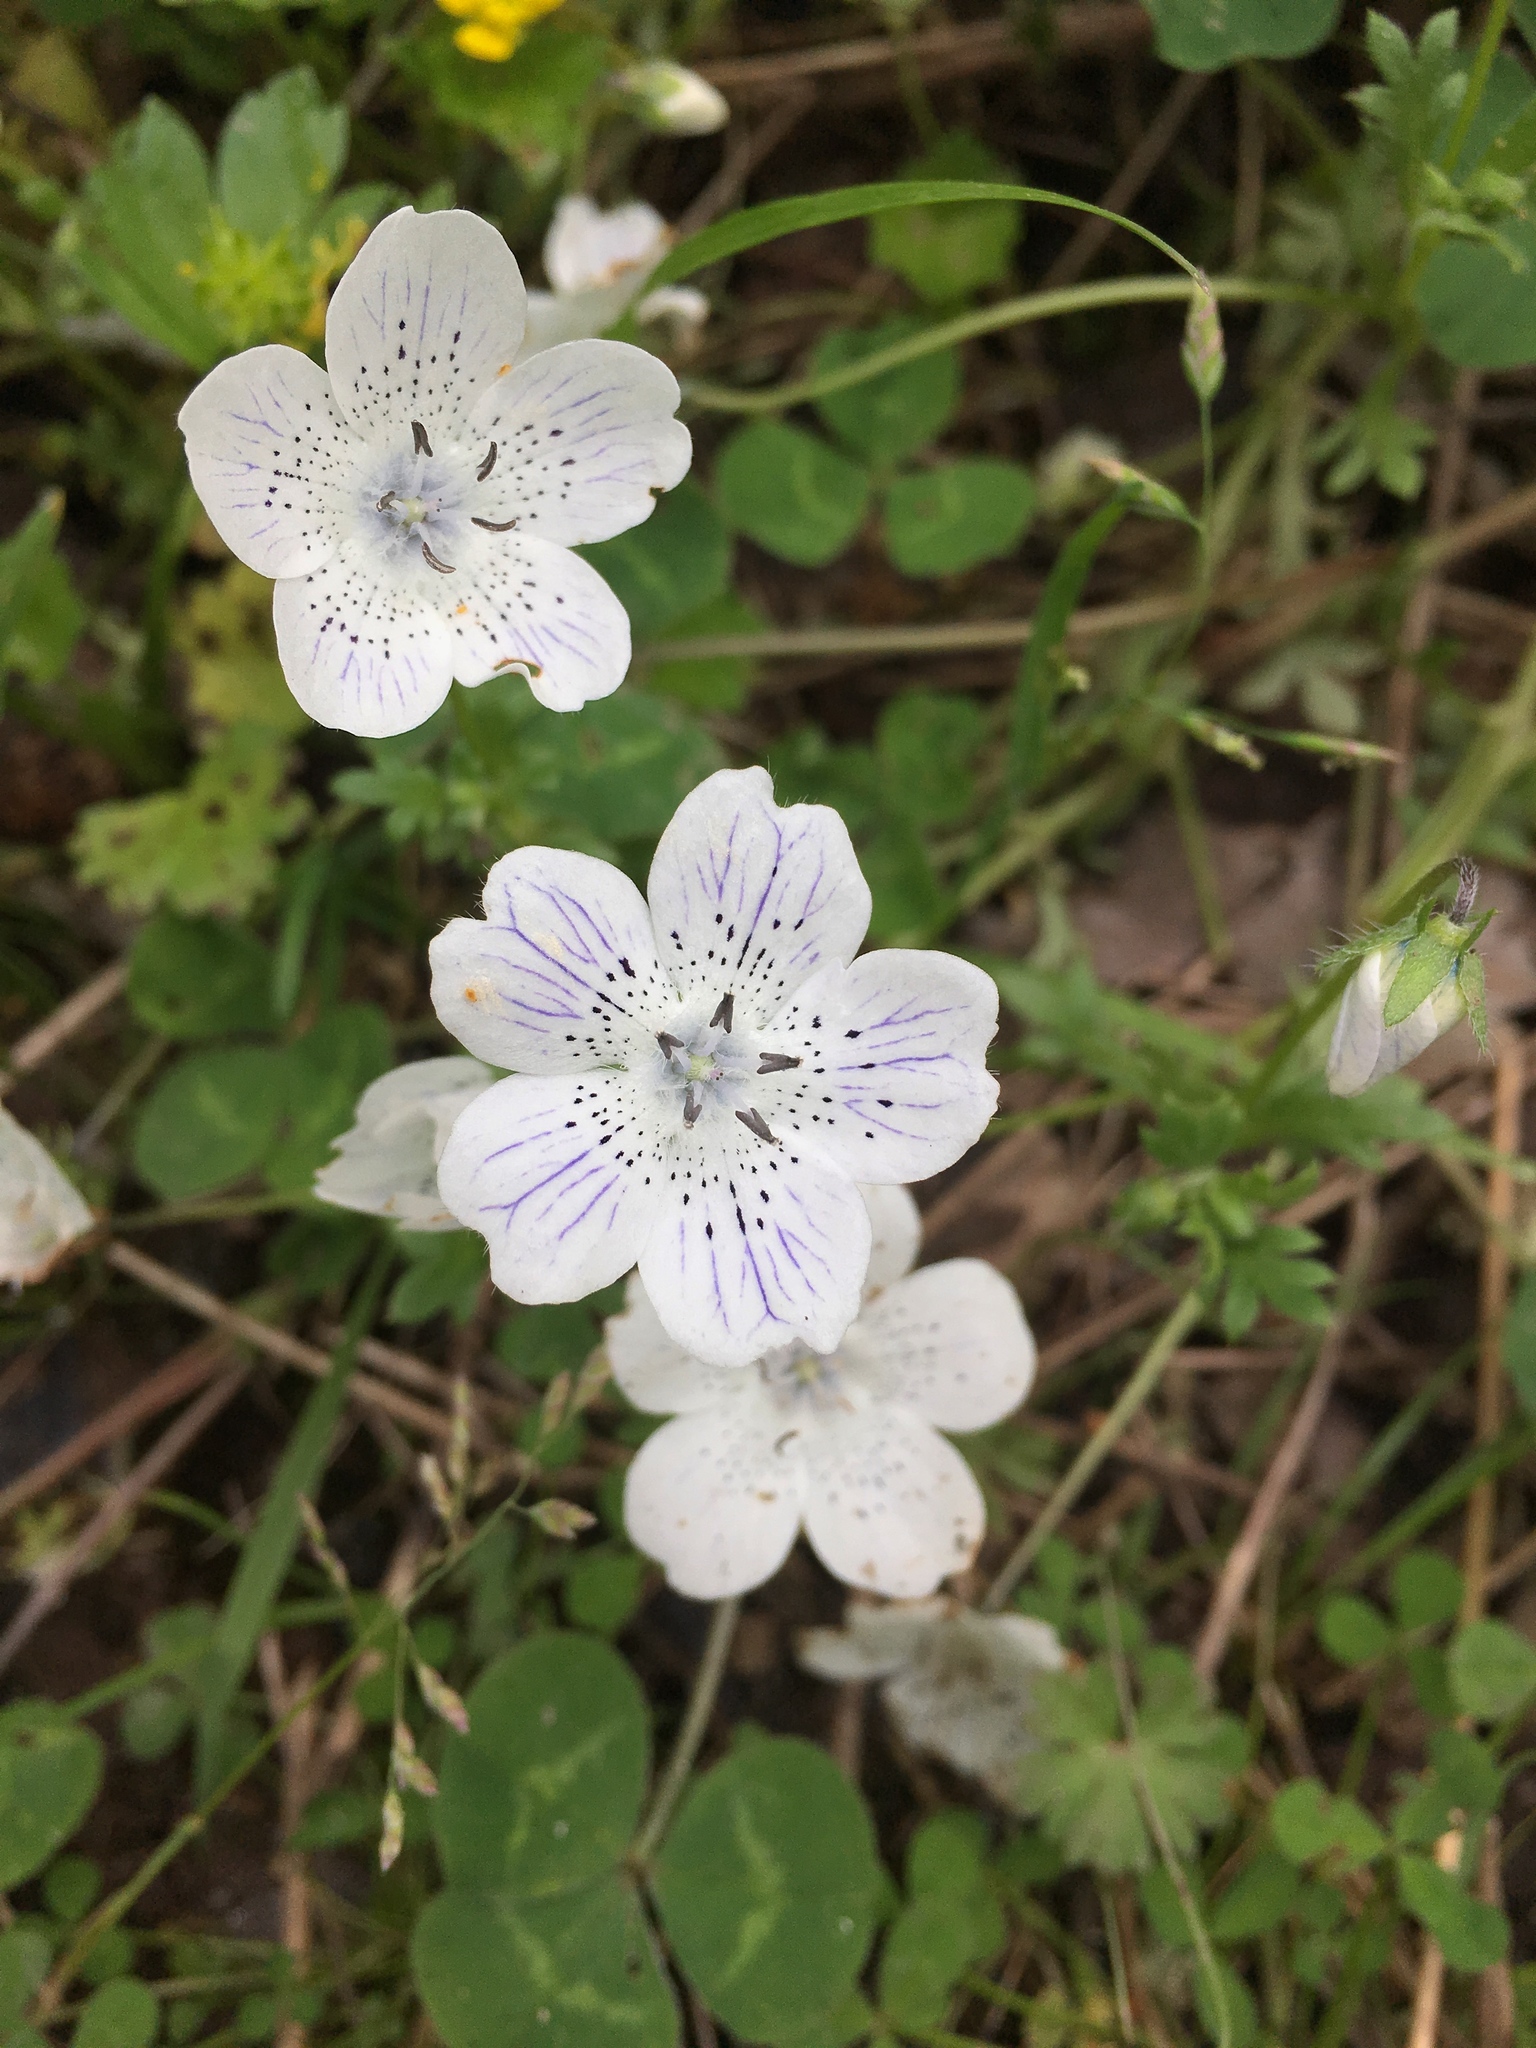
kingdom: Plantae
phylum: Tracheophyta
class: Magnoliopsida
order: Boraginales
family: Hydrophyllaceae
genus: Nemophila
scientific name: Nemophila menziesii
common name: Baby's-blue-eyes
